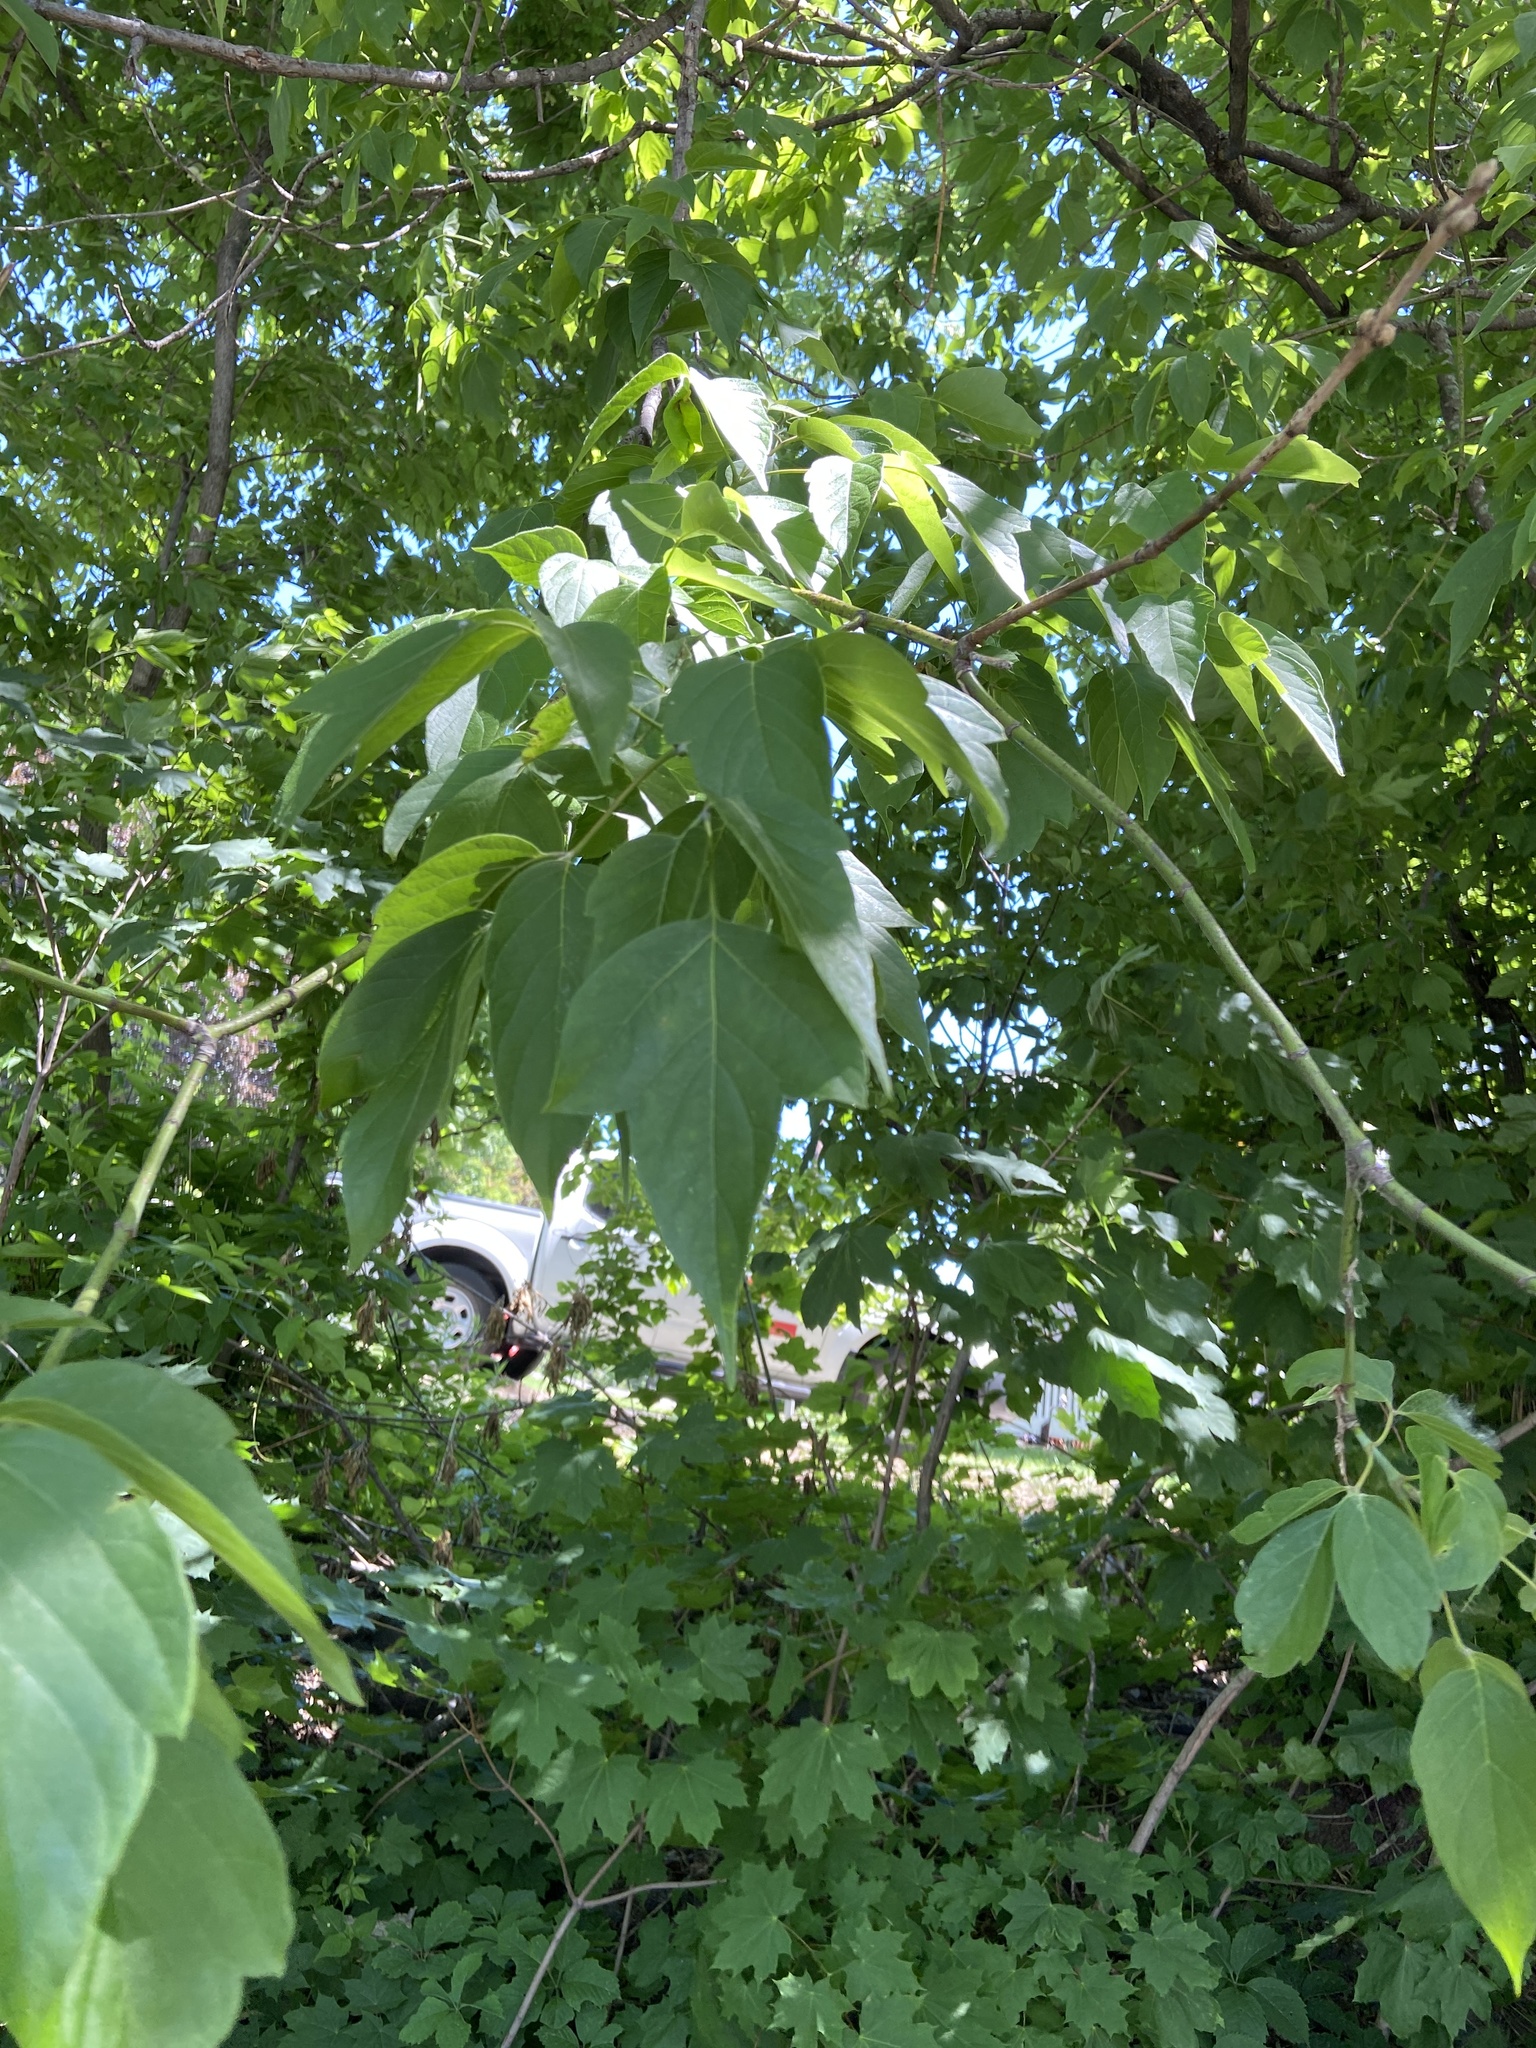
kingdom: Plantae
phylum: Tracheophyta
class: Magnoliopsida
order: Sapindales
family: Sapindaceae
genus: Acer
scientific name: Acer negundo
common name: Ashleaf maple
